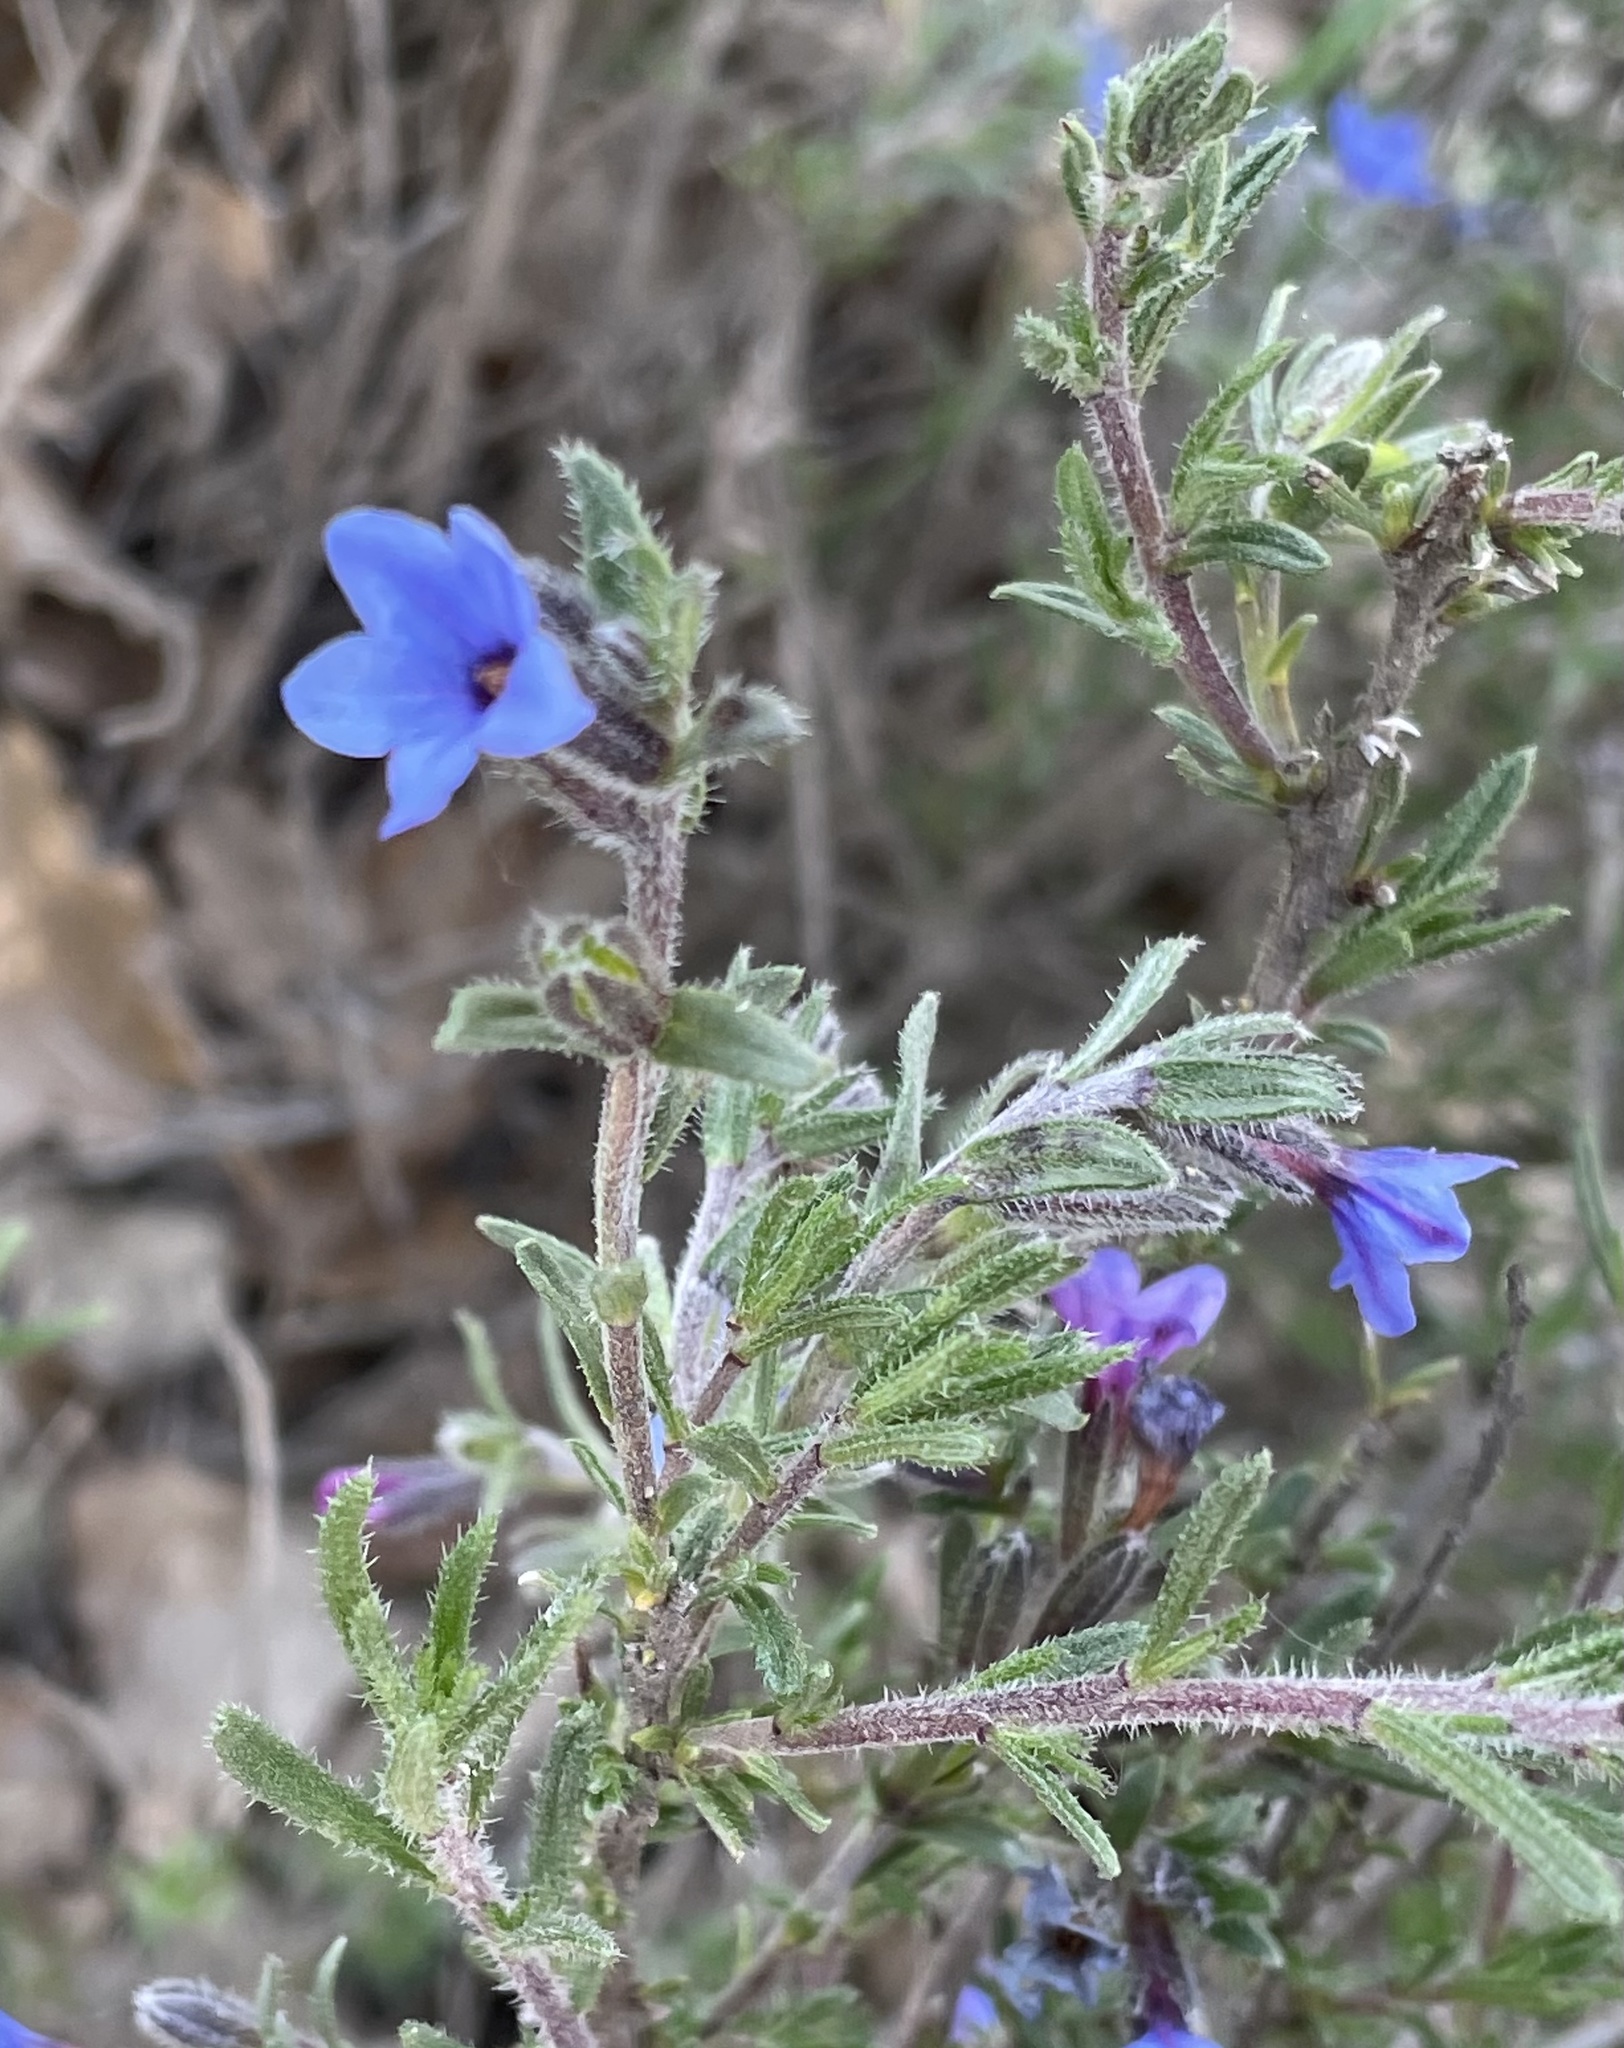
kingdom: Plantae
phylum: Tracheophyta
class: Magnoliopsida
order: Boraginales
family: Boraginaceae
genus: Lithodora
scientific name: Lithodora fruticosa
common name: Shrubby gromwell
